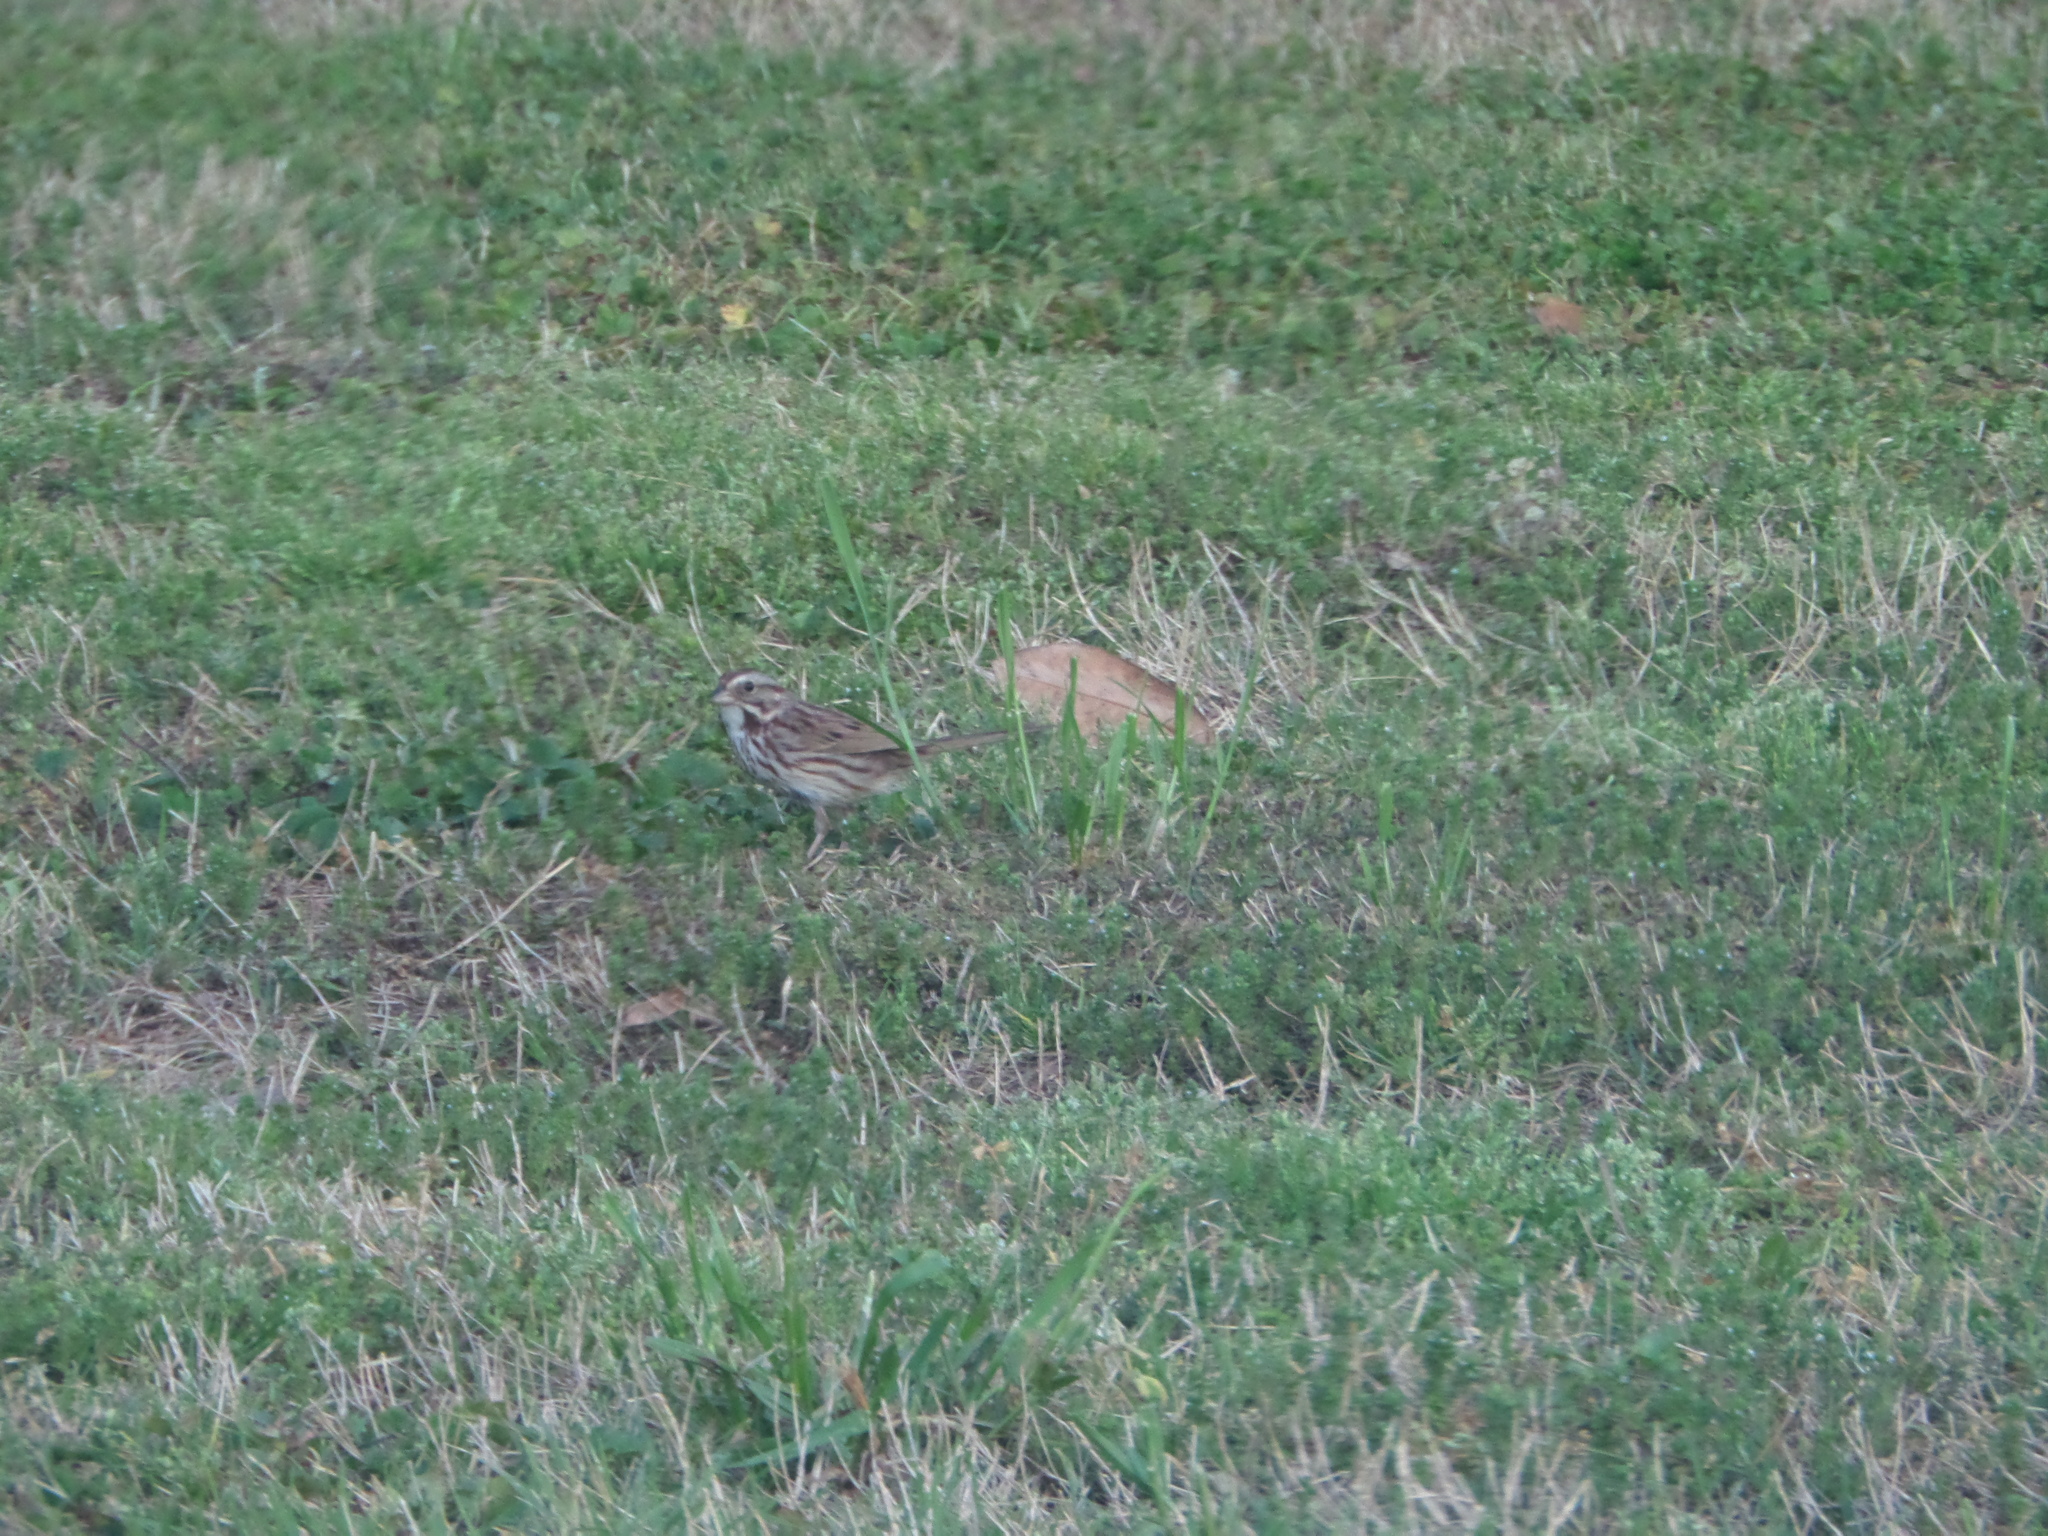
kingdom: Animalia
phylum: Chordata
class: Aves
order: Passeriformes
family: Passerellidae
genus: Melospiza
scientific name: Melospiza melodia
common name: Song sparrow
